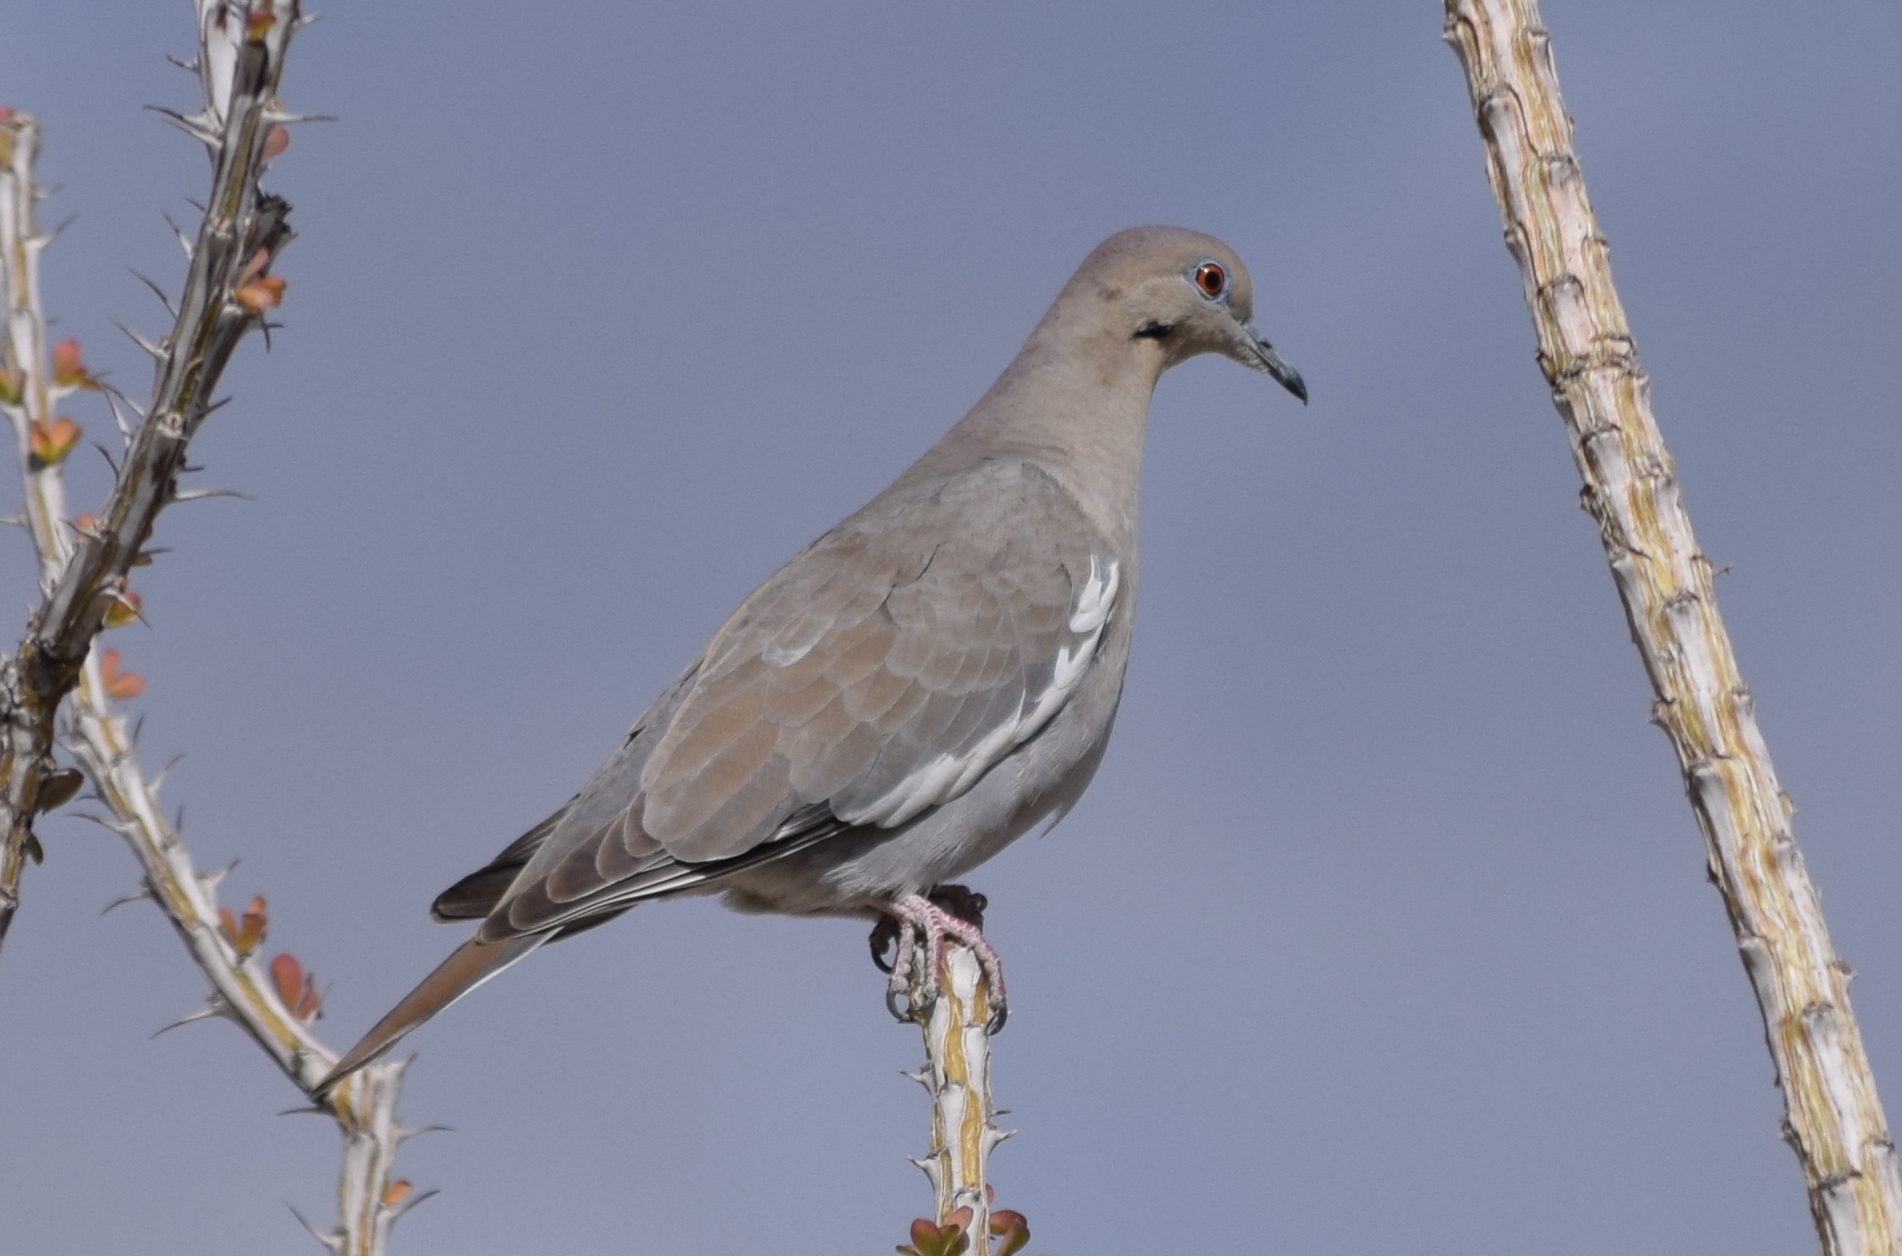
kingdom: Animalia
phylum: Chordata
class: Aves
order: Columbiformes
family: Columbidae
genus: Zenaida
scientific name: Zenaida asiatica
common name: White-winged dove
